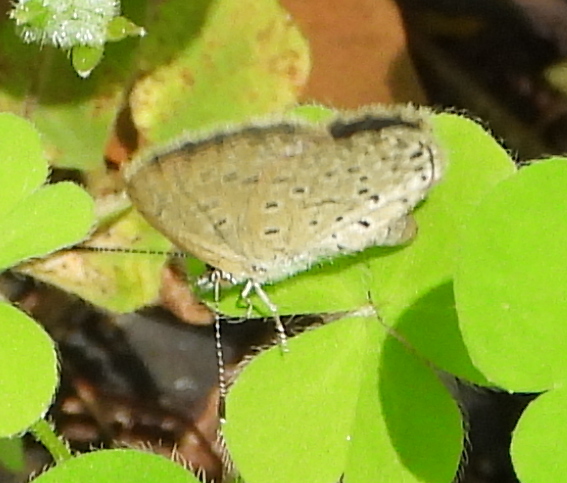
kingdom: Animalia
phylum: Arthropoda
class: Insecta
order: Lepidoptera
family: Lycaenidae
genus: Zizeeria
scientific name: Zizeeria knysna
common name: African grass blue
